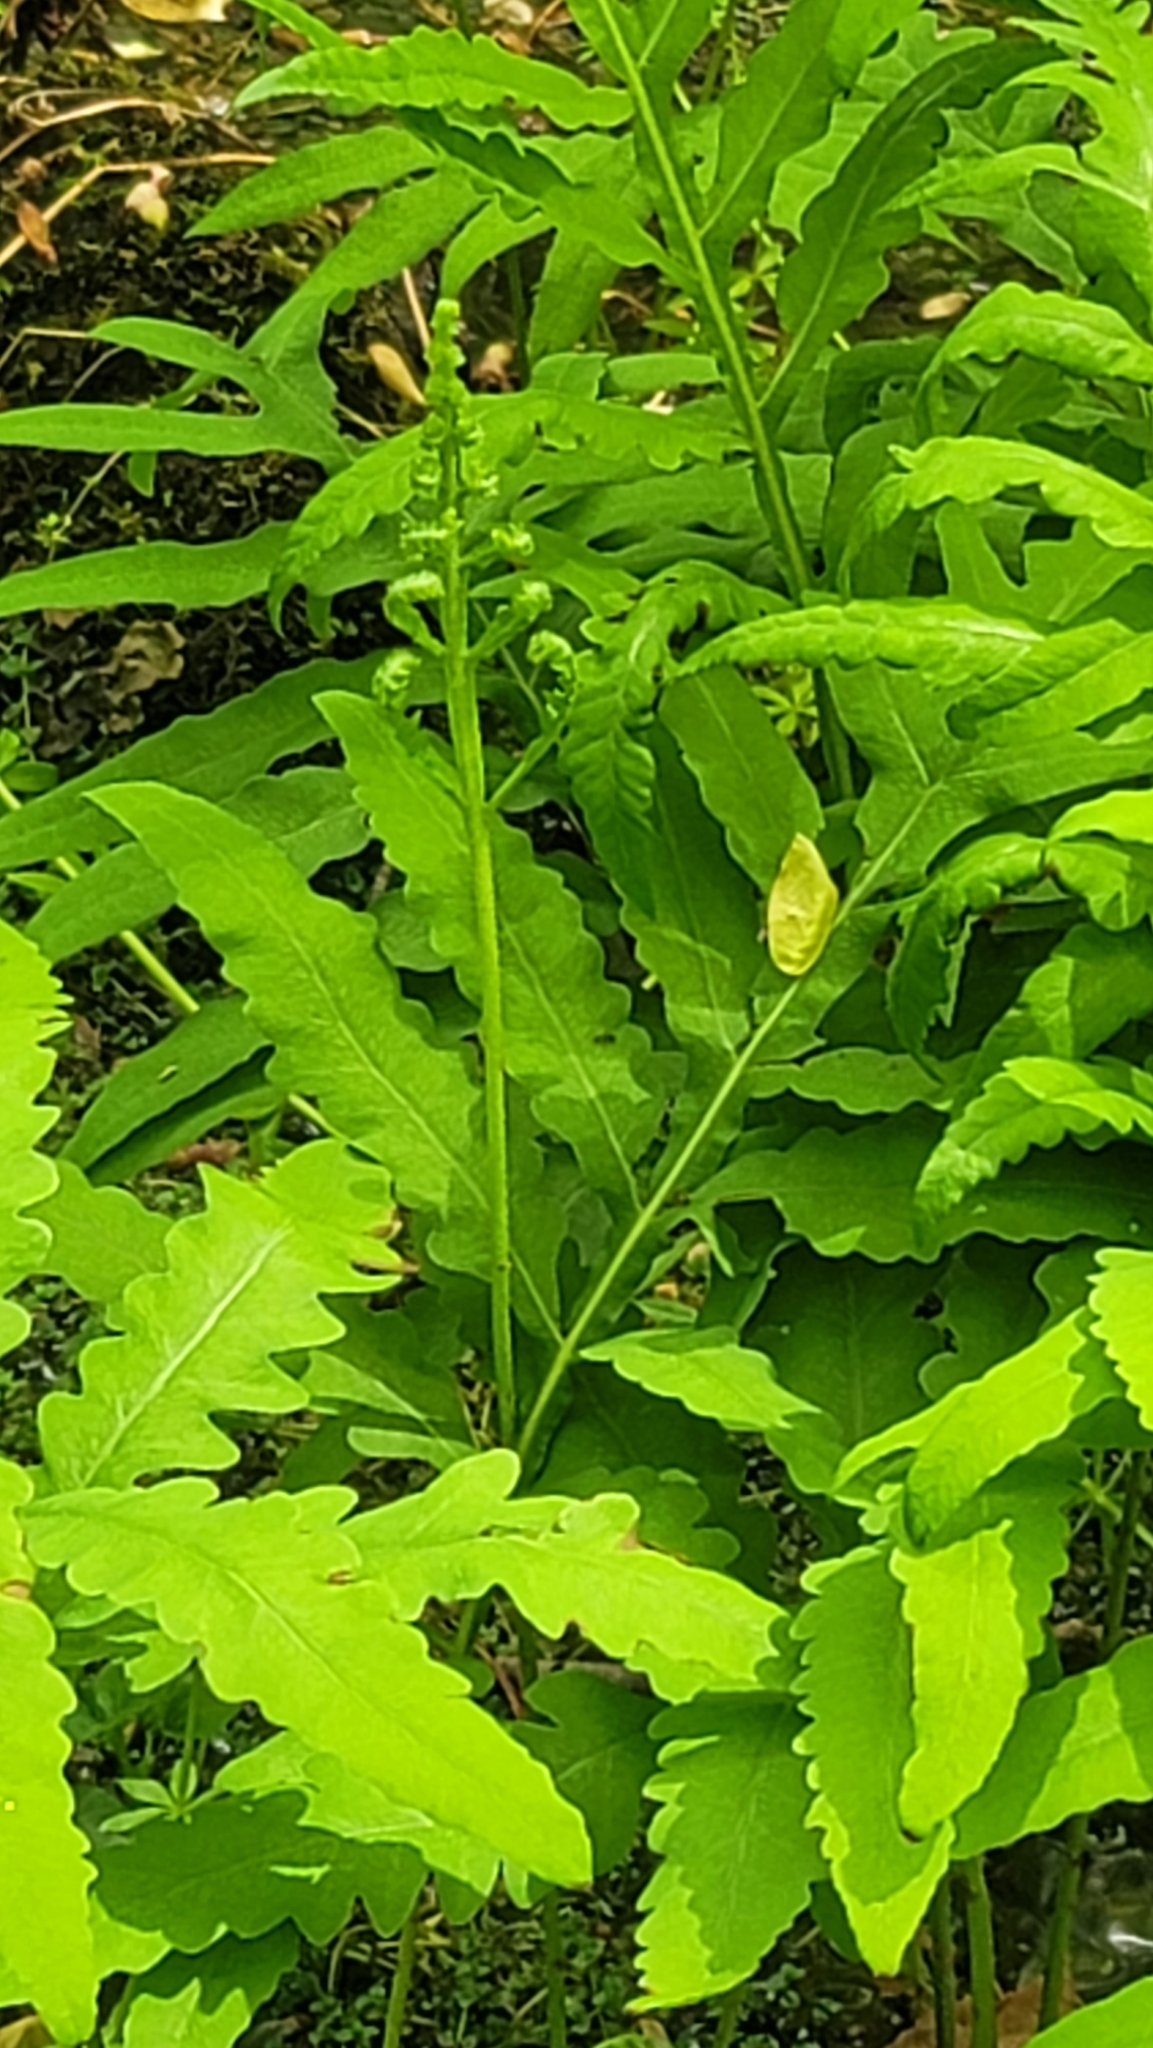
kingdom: Plantae
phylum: Tracheophyta
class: Polypodiopsida
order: Polypodiales
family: Onocleaceae
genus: Onoclea
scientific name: Onoclea sensibilis
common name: Sensitive fern
